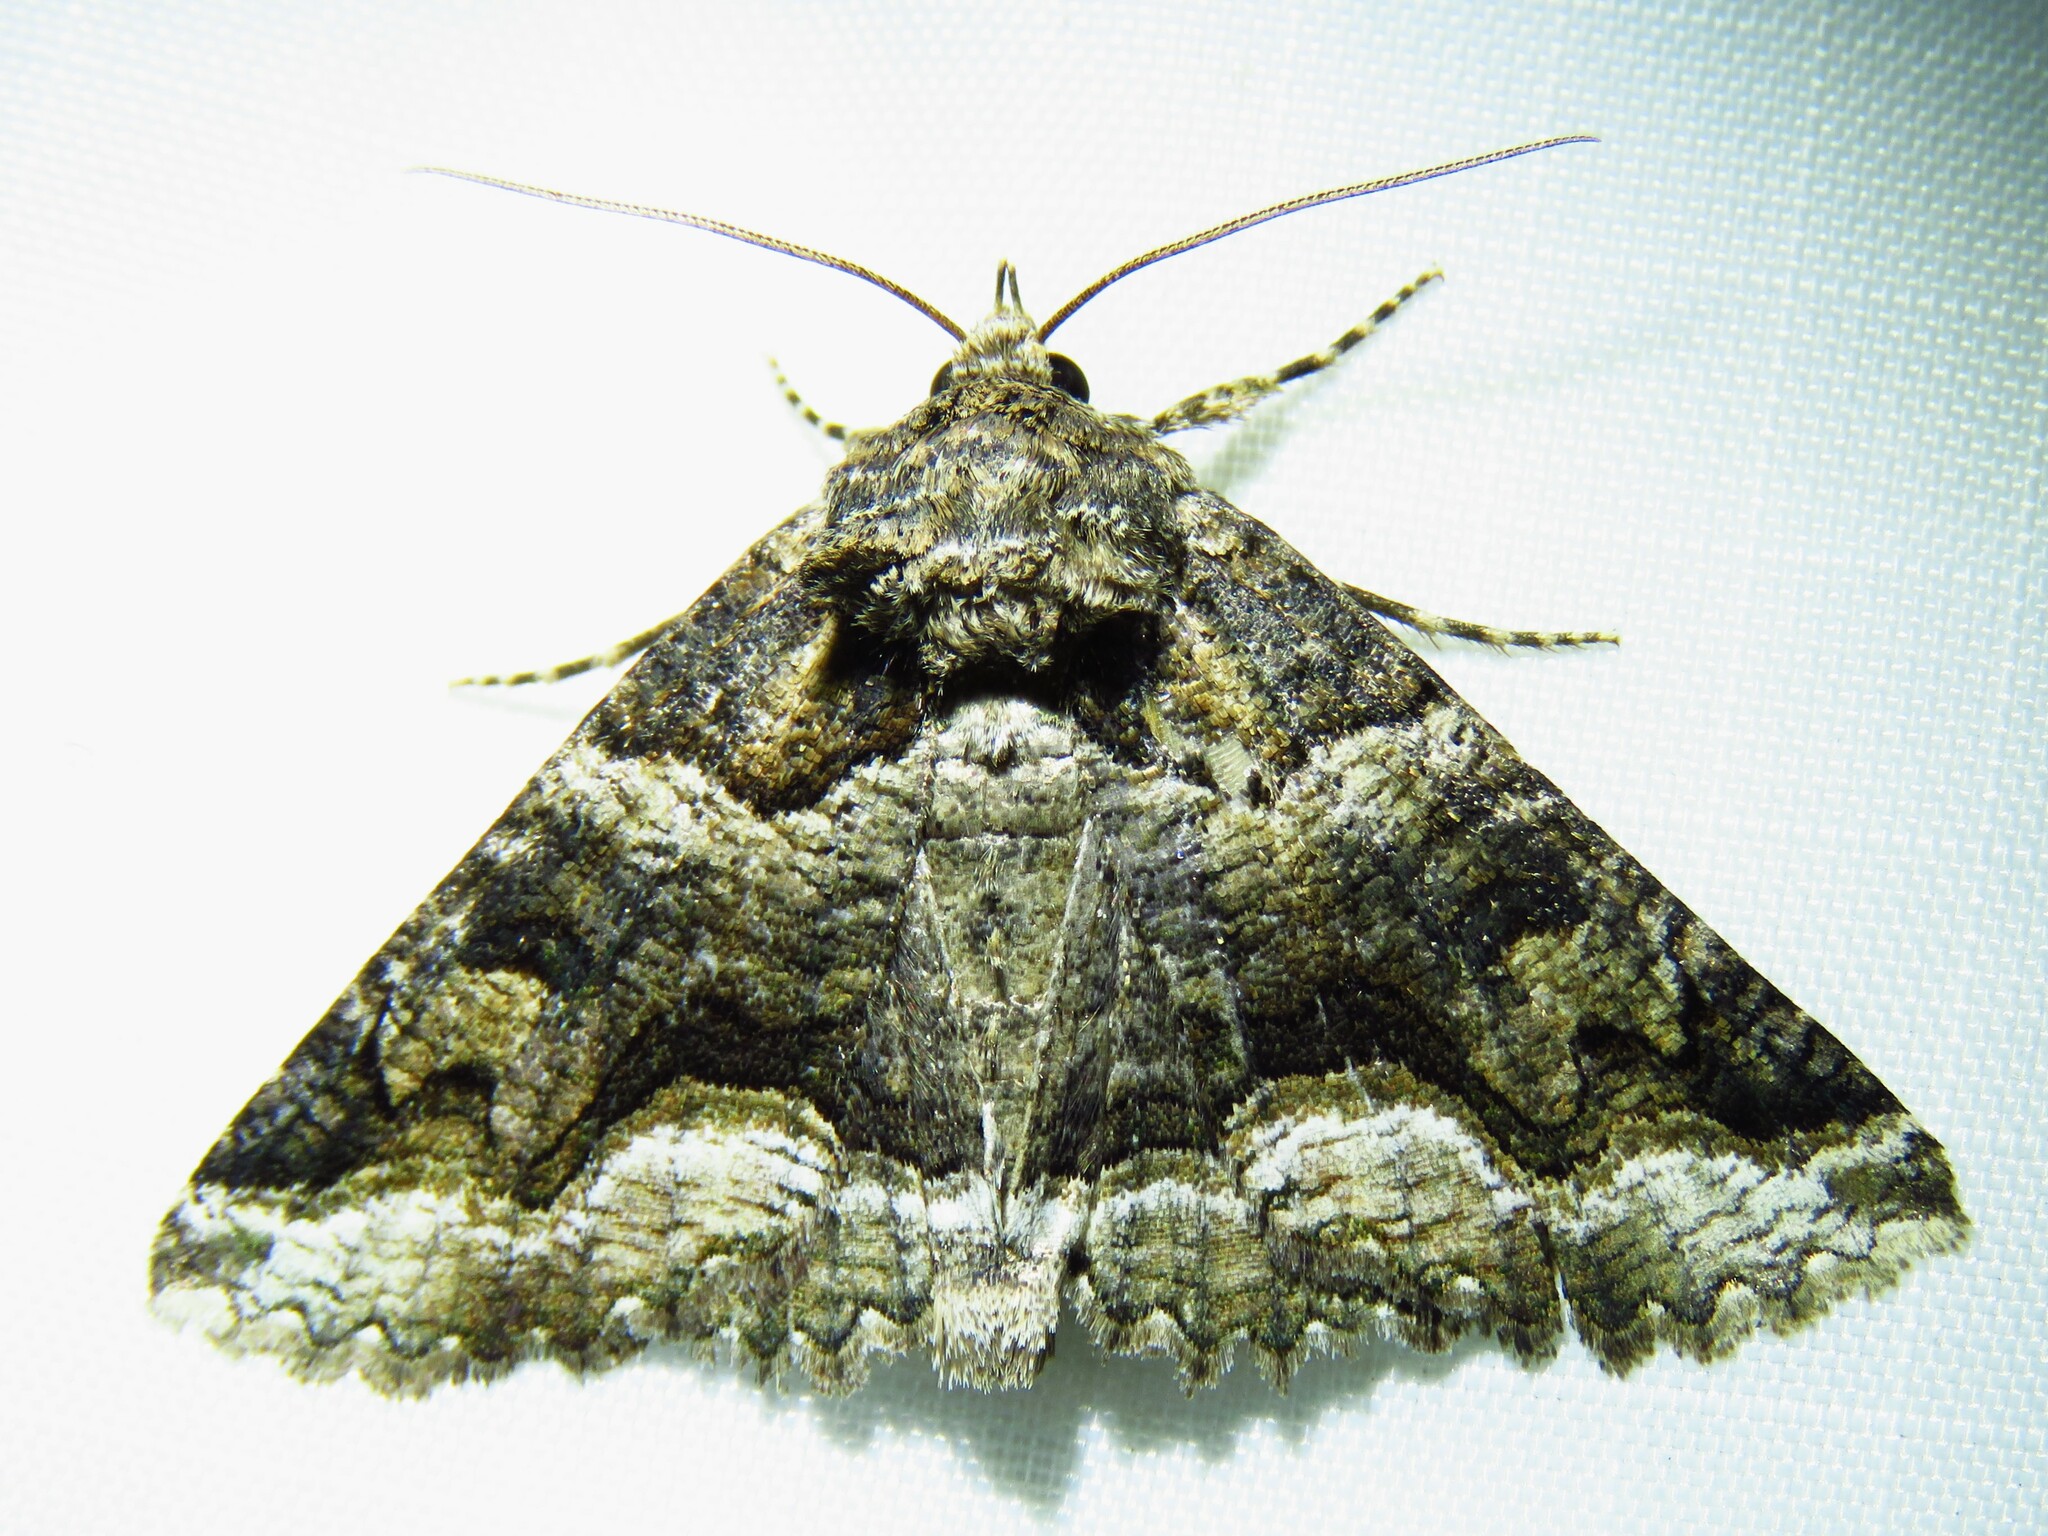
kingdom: Animalia
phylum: Arthropoda
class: Insecta
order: Lepidoptera
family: Erebidae
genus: Zale
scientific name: Zale calycanthata
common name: Double-banded zale
